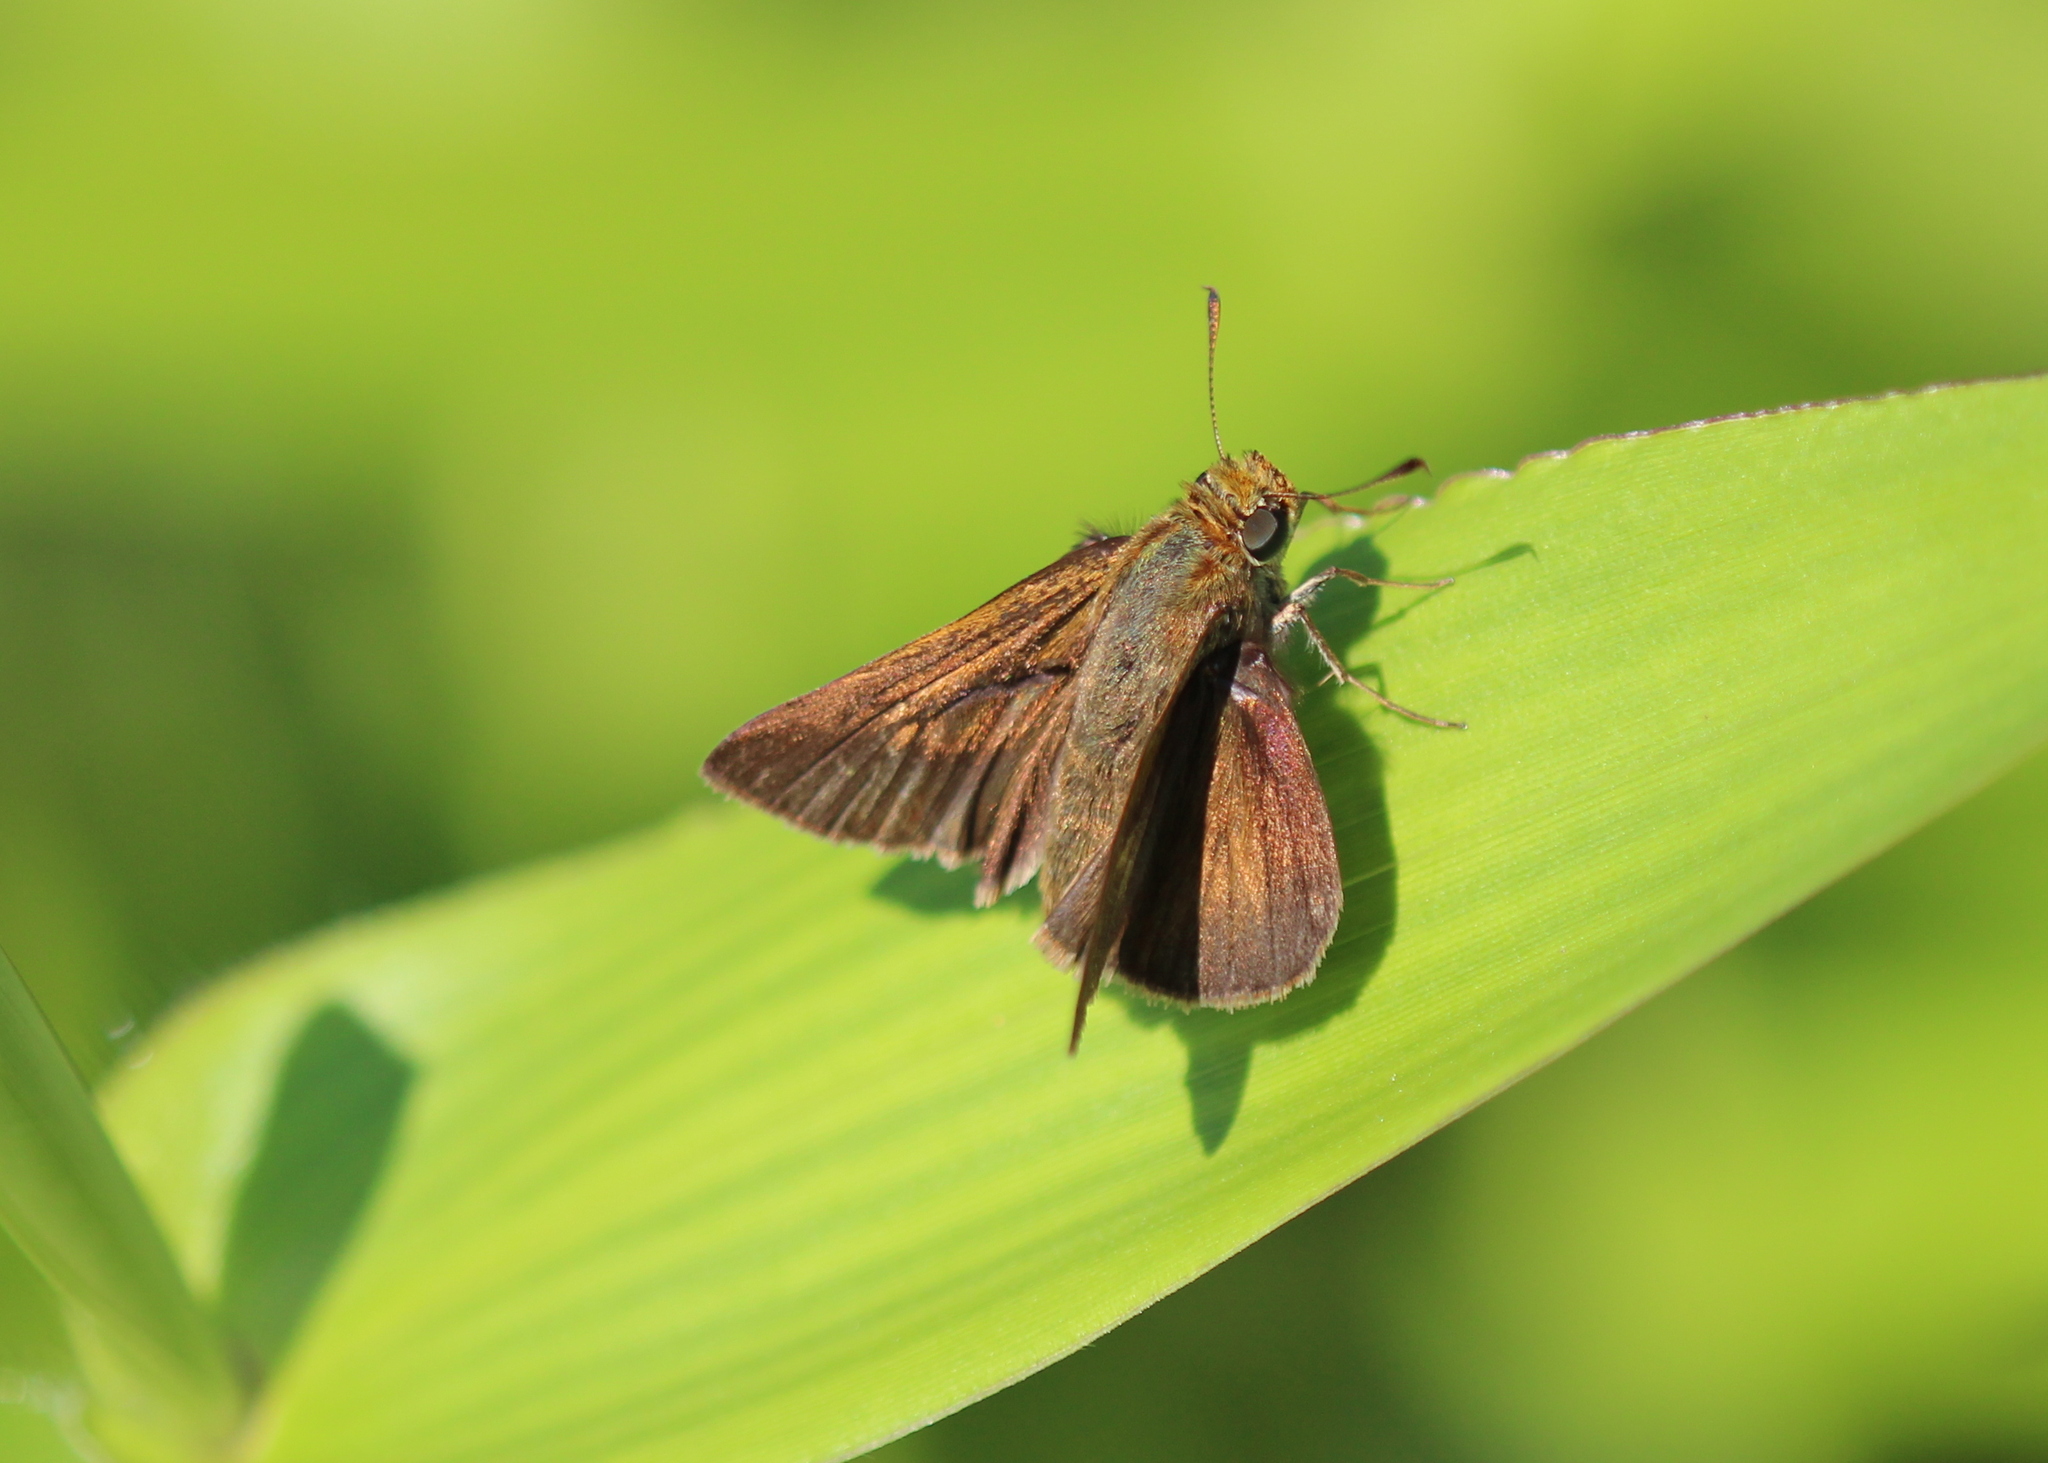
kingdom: Animalia
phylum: Arthropoda
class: Insecta
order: Lepidoptera
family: Hesperiidae
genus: Euphyes
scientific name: Euphyes vestris
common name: Dun skipper
